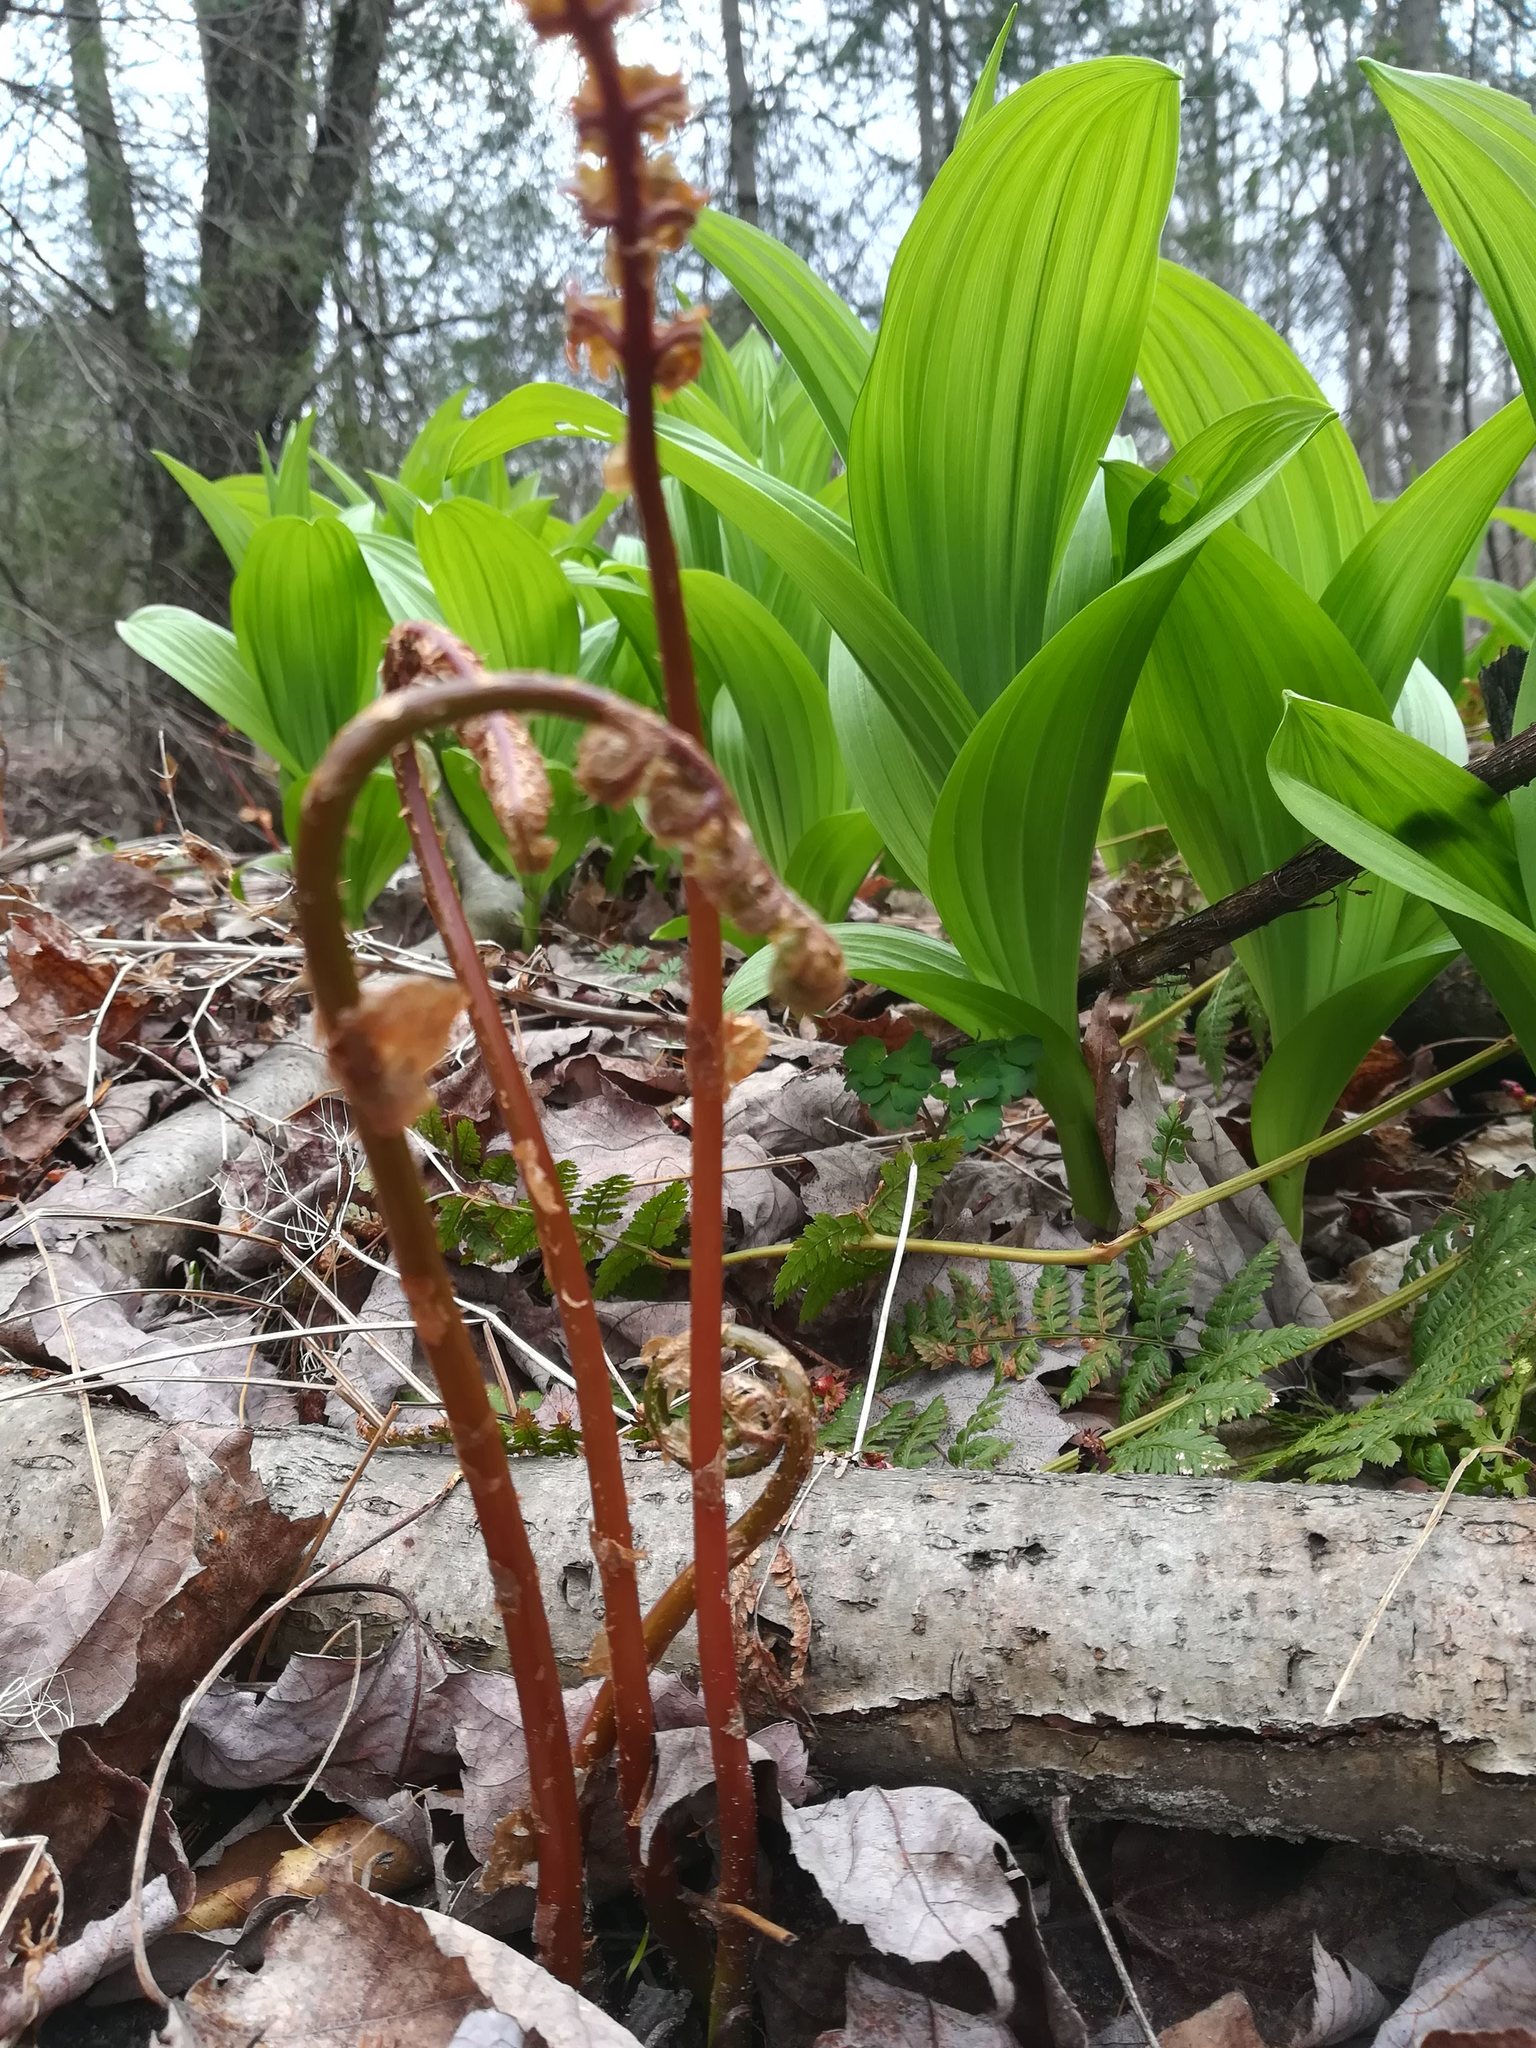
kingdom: Plantae
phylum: Tracheophyta
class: Polypodiopsida
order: Polypodiales
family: Onocleaceae
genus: Onoclea
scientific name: Onoclea sensibilis
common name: Sensitive fern
